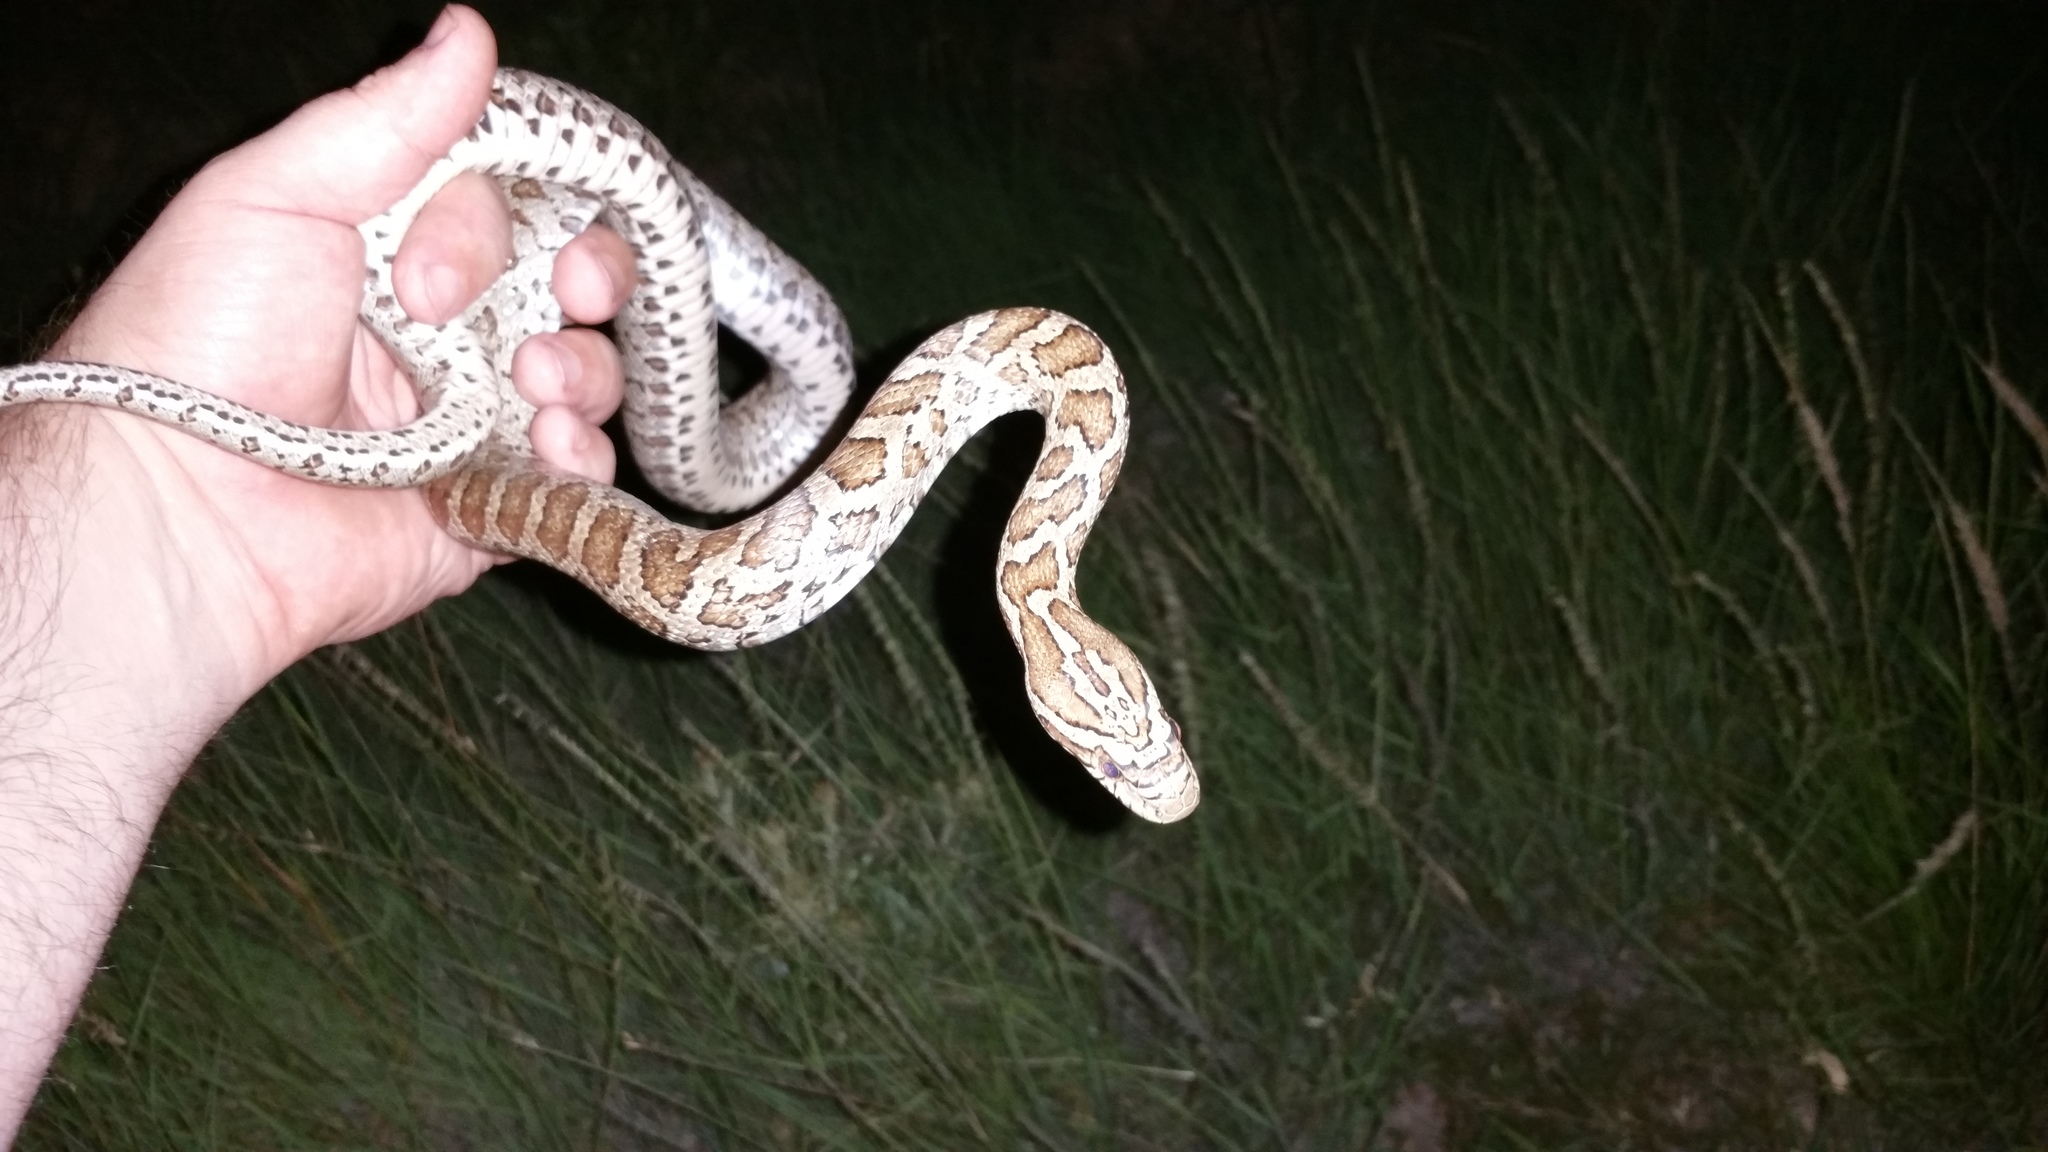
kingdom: Animalia
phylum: Chordata
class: Squamata
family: Colubridae
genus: Pantherophis
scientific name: Pantherophis emoryi
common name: Great plains rat snake
